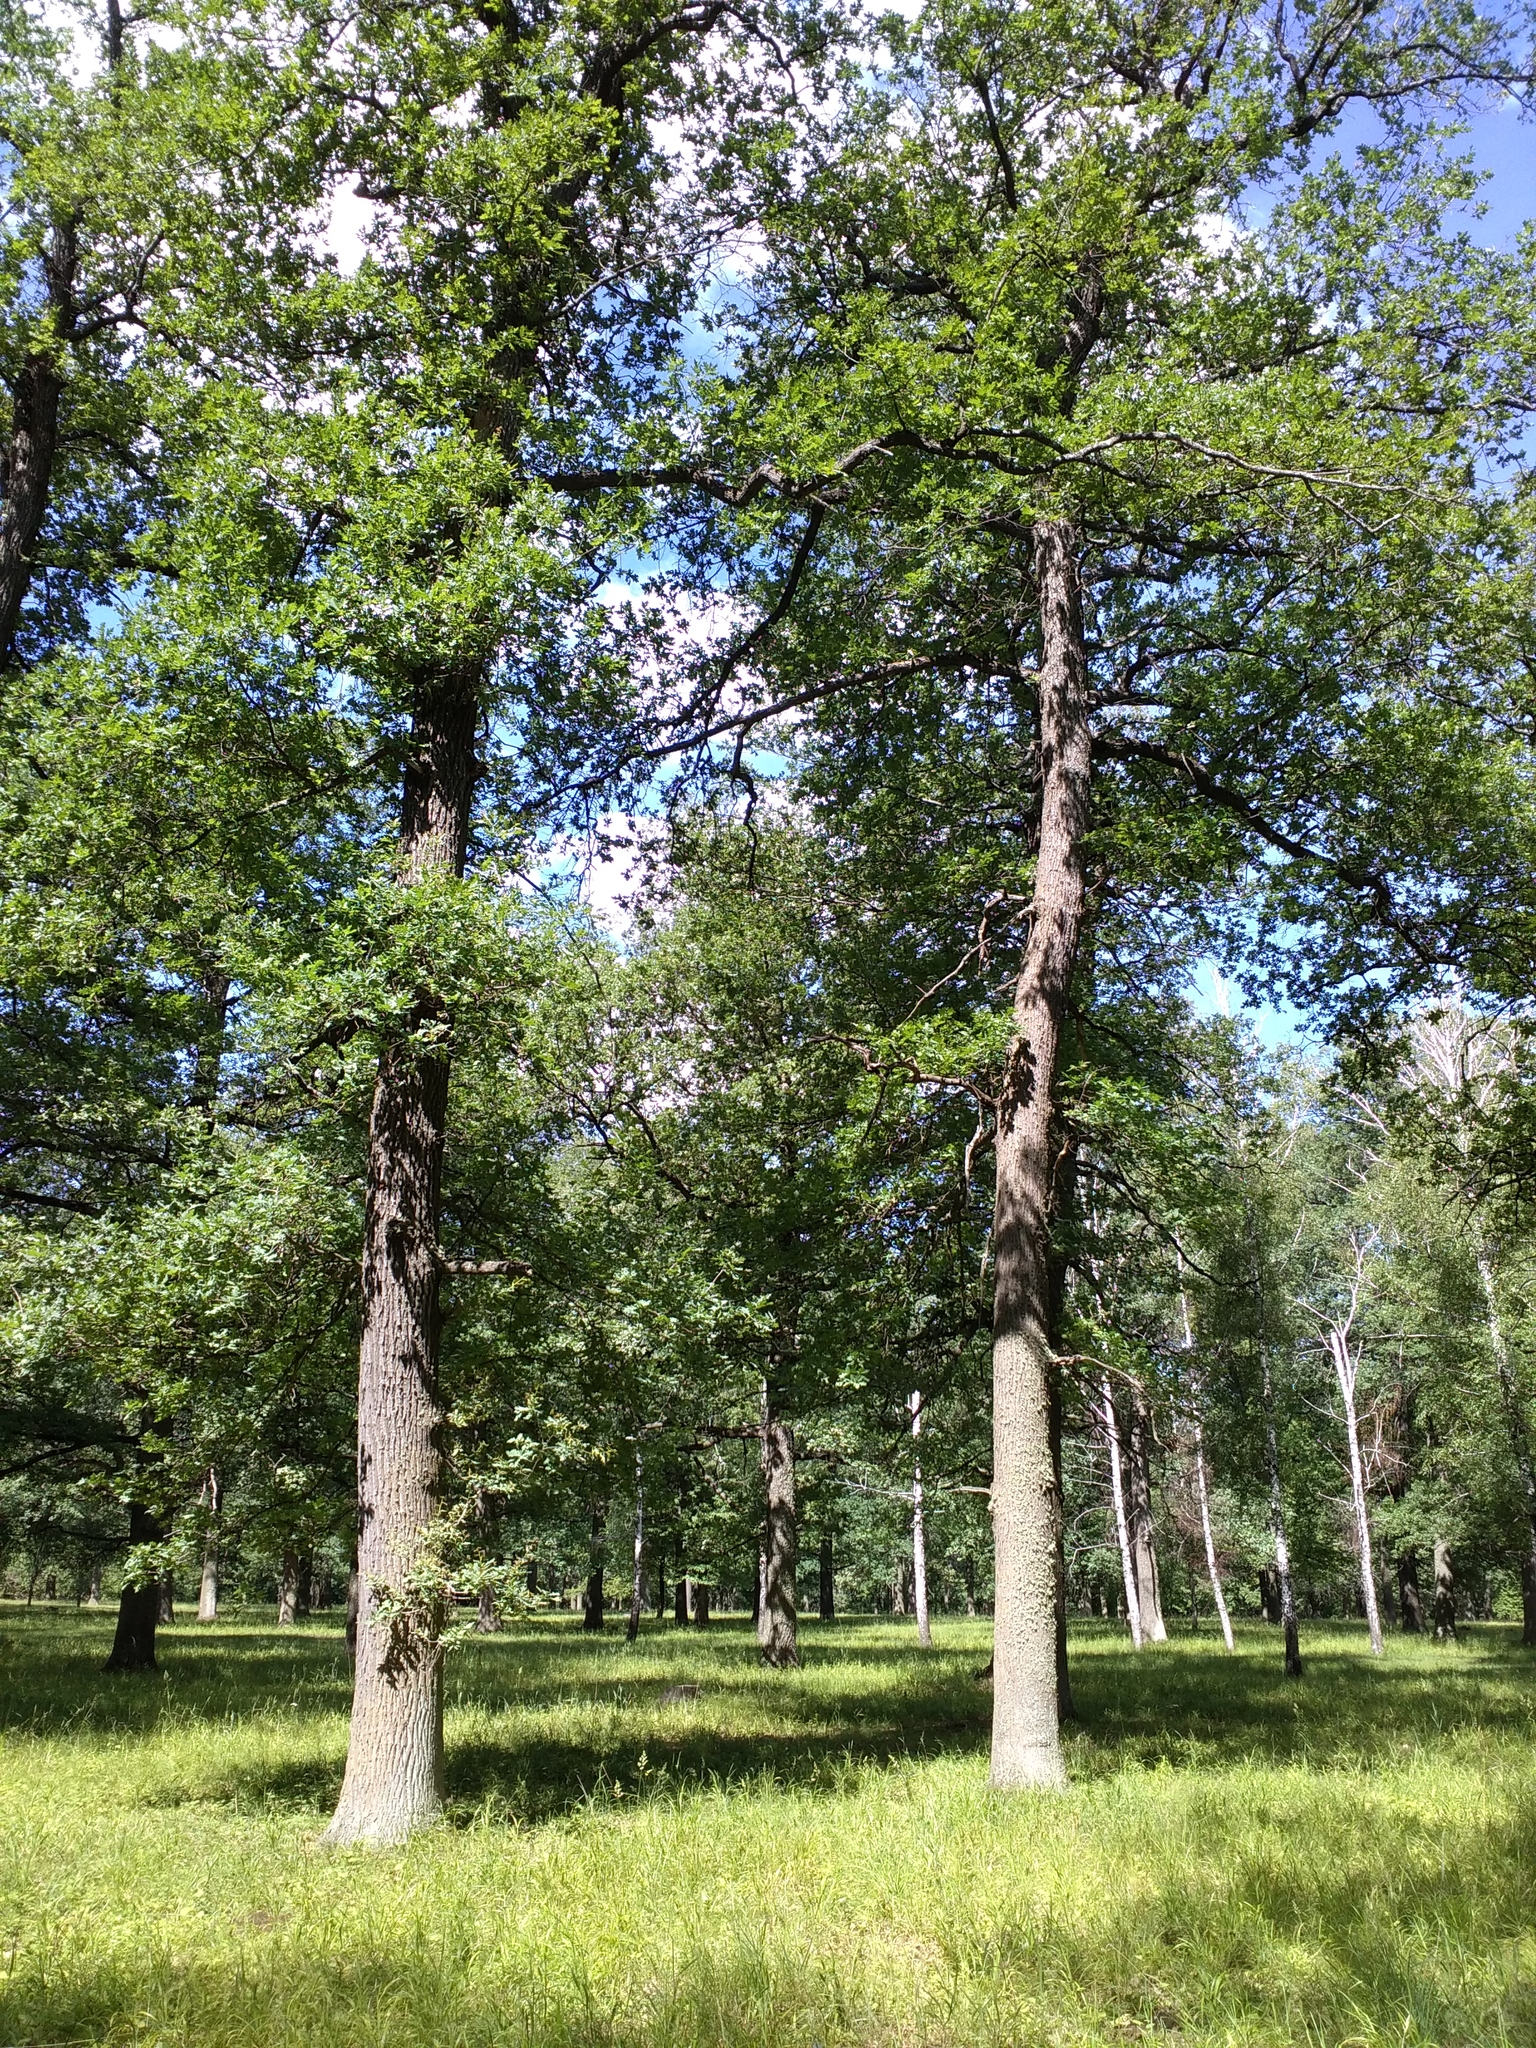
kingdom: Plantae
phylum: Tracheophyta
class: Magnoliopsida
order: Fagales
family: Fagaceae
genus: Quercus
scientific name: Quercus robur
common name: Pedunculate oak
